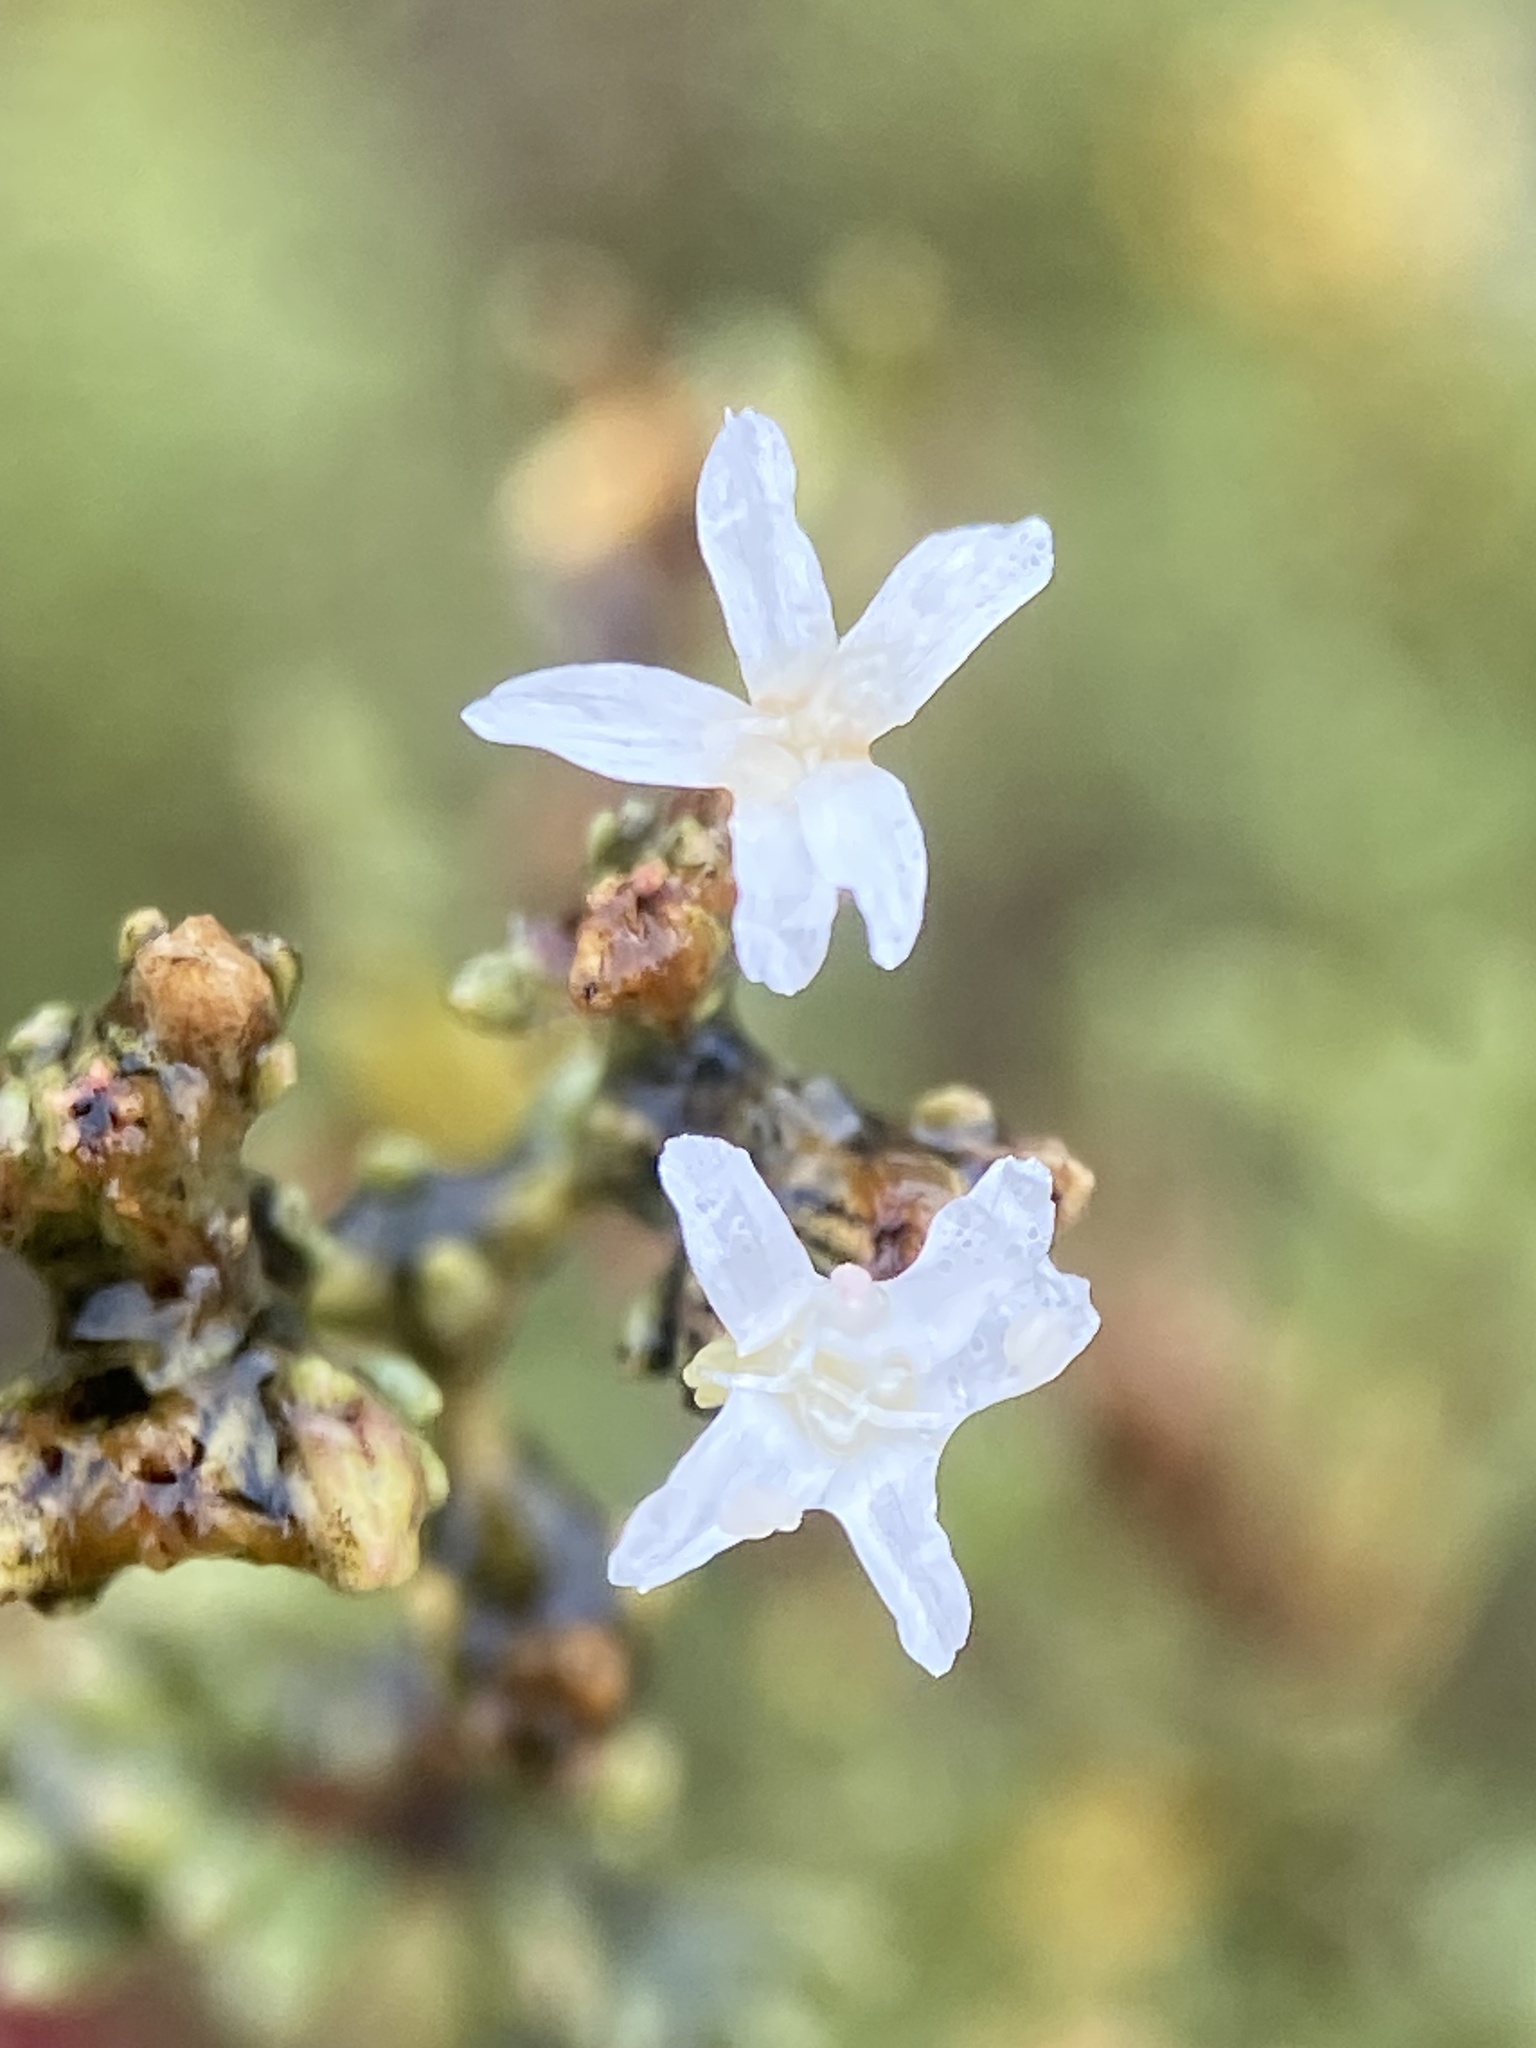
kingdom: Plantae
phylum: Tracheophyta
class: Magnoliopsida
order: Caryophyllales
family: Frankeniaceae
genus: Frankenia
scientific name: Frankenia palmeri
